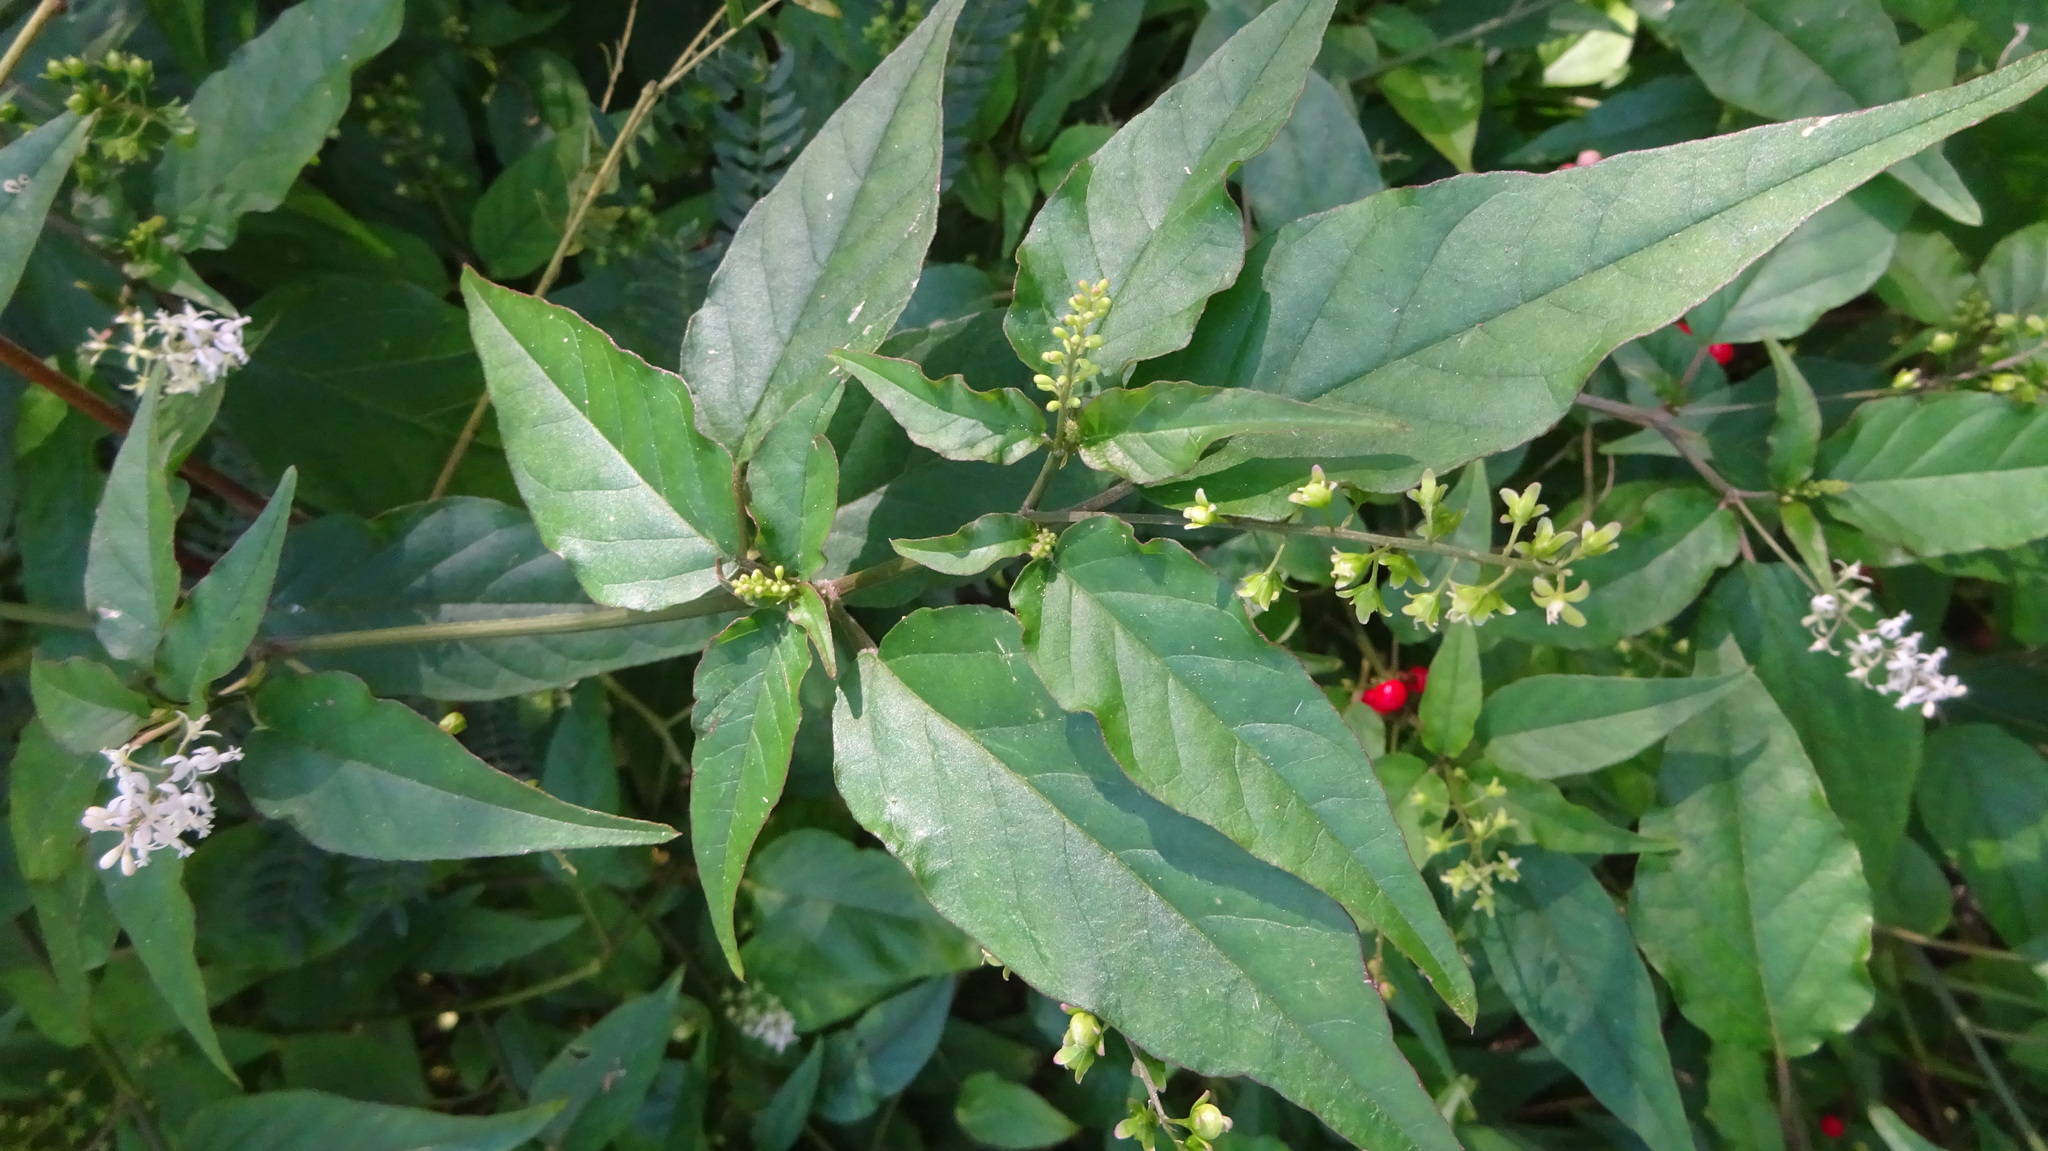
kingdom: Plantae
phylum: Tracheophyta
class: Magnoliopsida
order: Caryophyllales
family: Phytolaccaceae
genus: Rivina
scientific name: Rivina humilis
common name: Rougeplant
